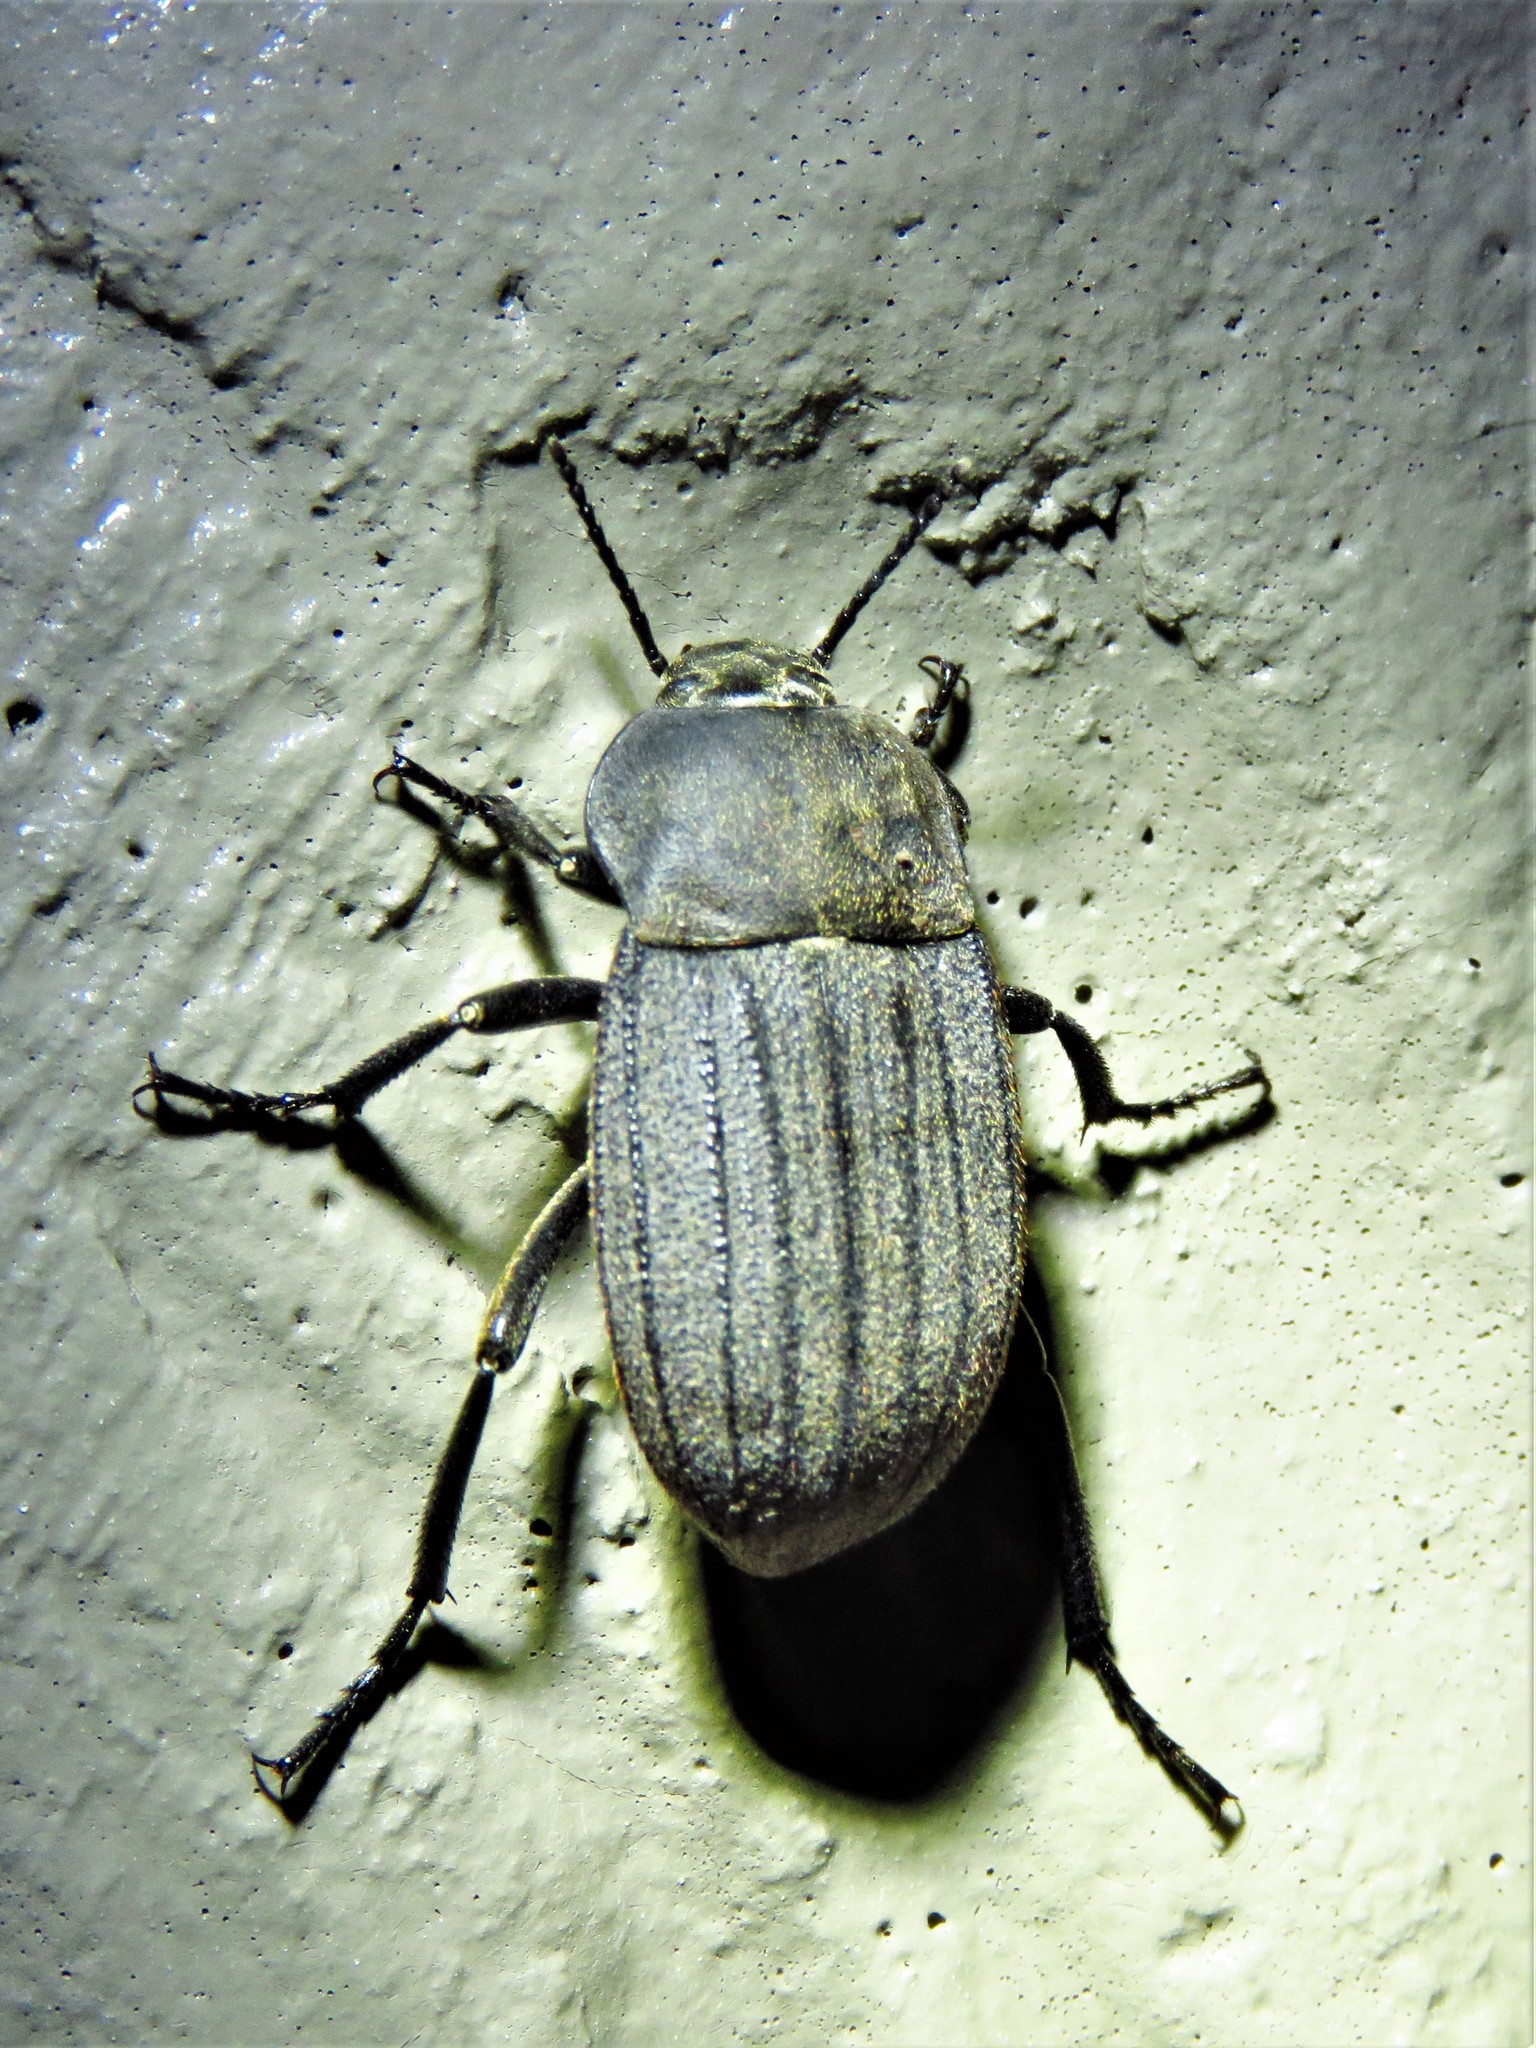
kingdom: Animalia
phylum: Arthropoda
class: Insecta
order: Coleoptera
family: Tenebrionidae
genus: Eleodes
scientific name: Eleodes tricostata
